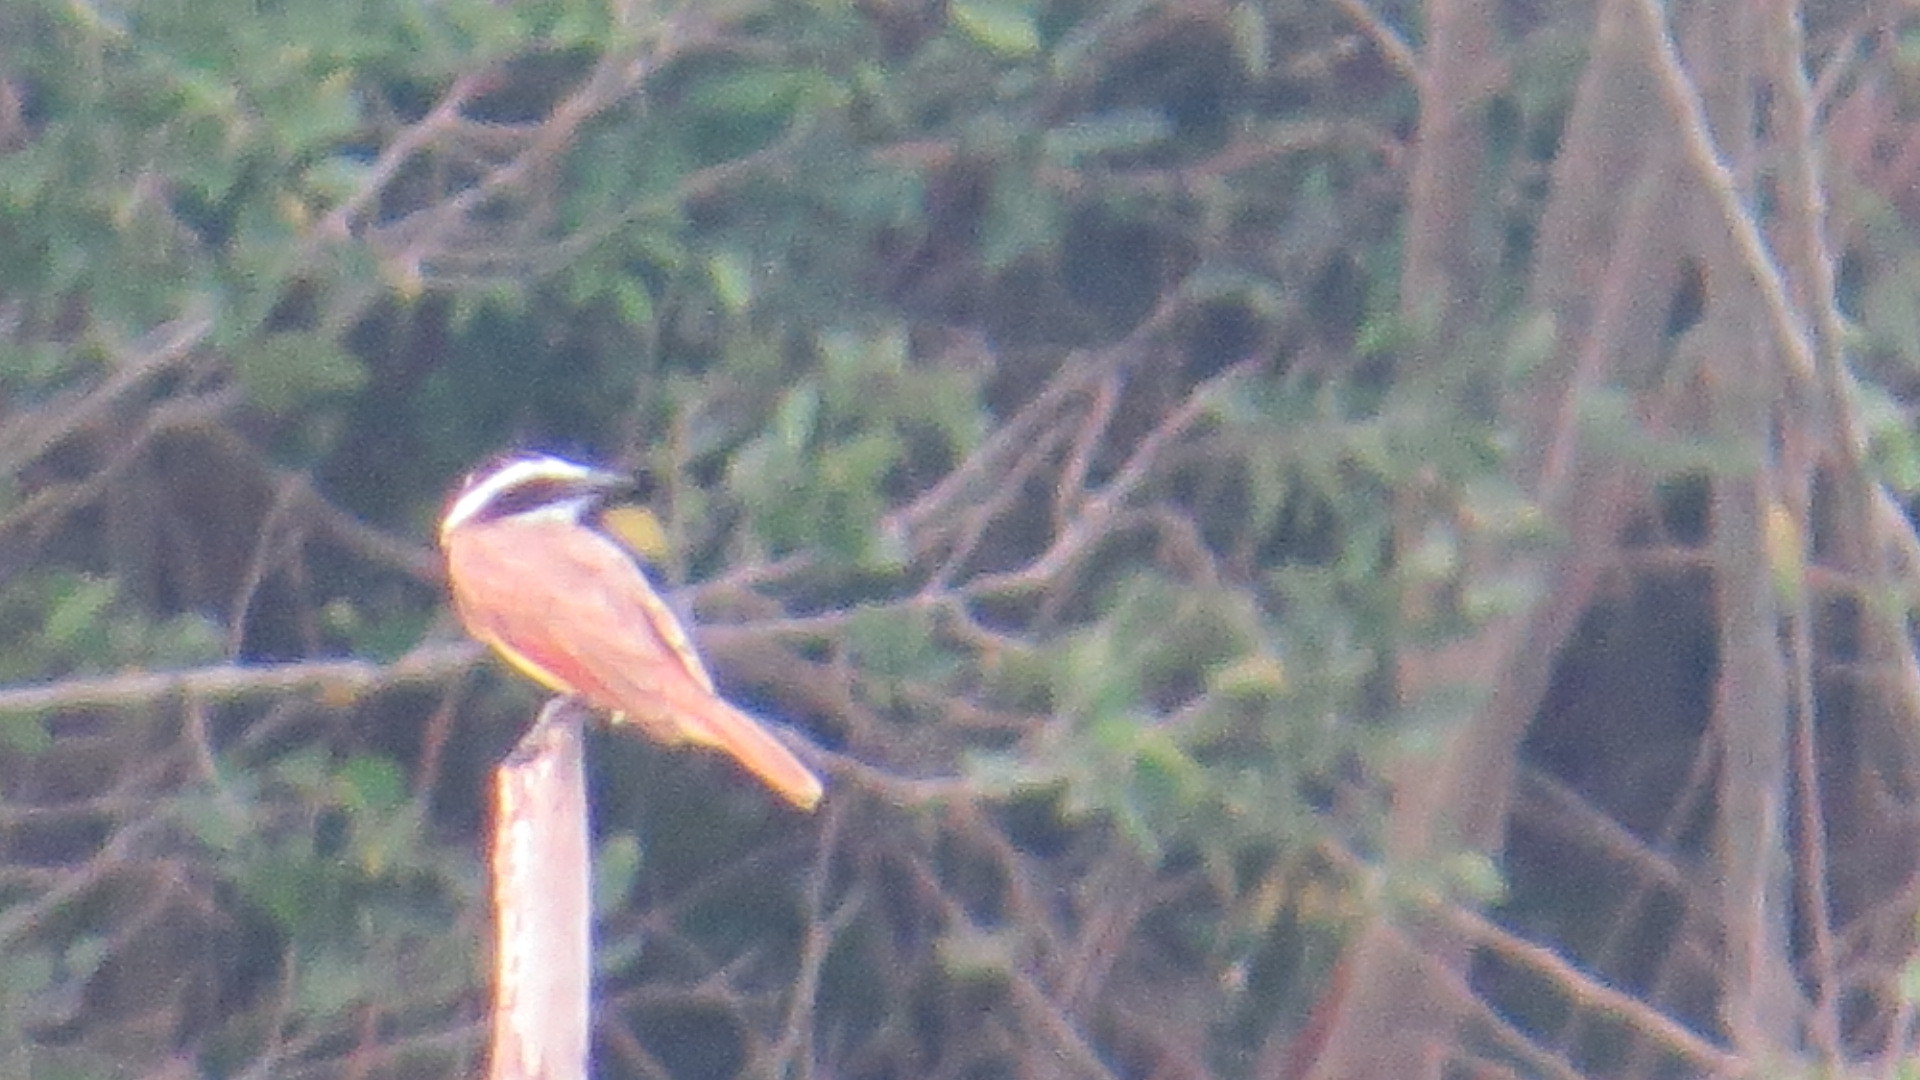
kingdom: Animalia
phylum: Chordata
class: Aves
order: Passeriformes
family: Tyrannidae
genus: Pitangus
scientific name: Pitangus sulphuratus
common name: Great kiskadee
